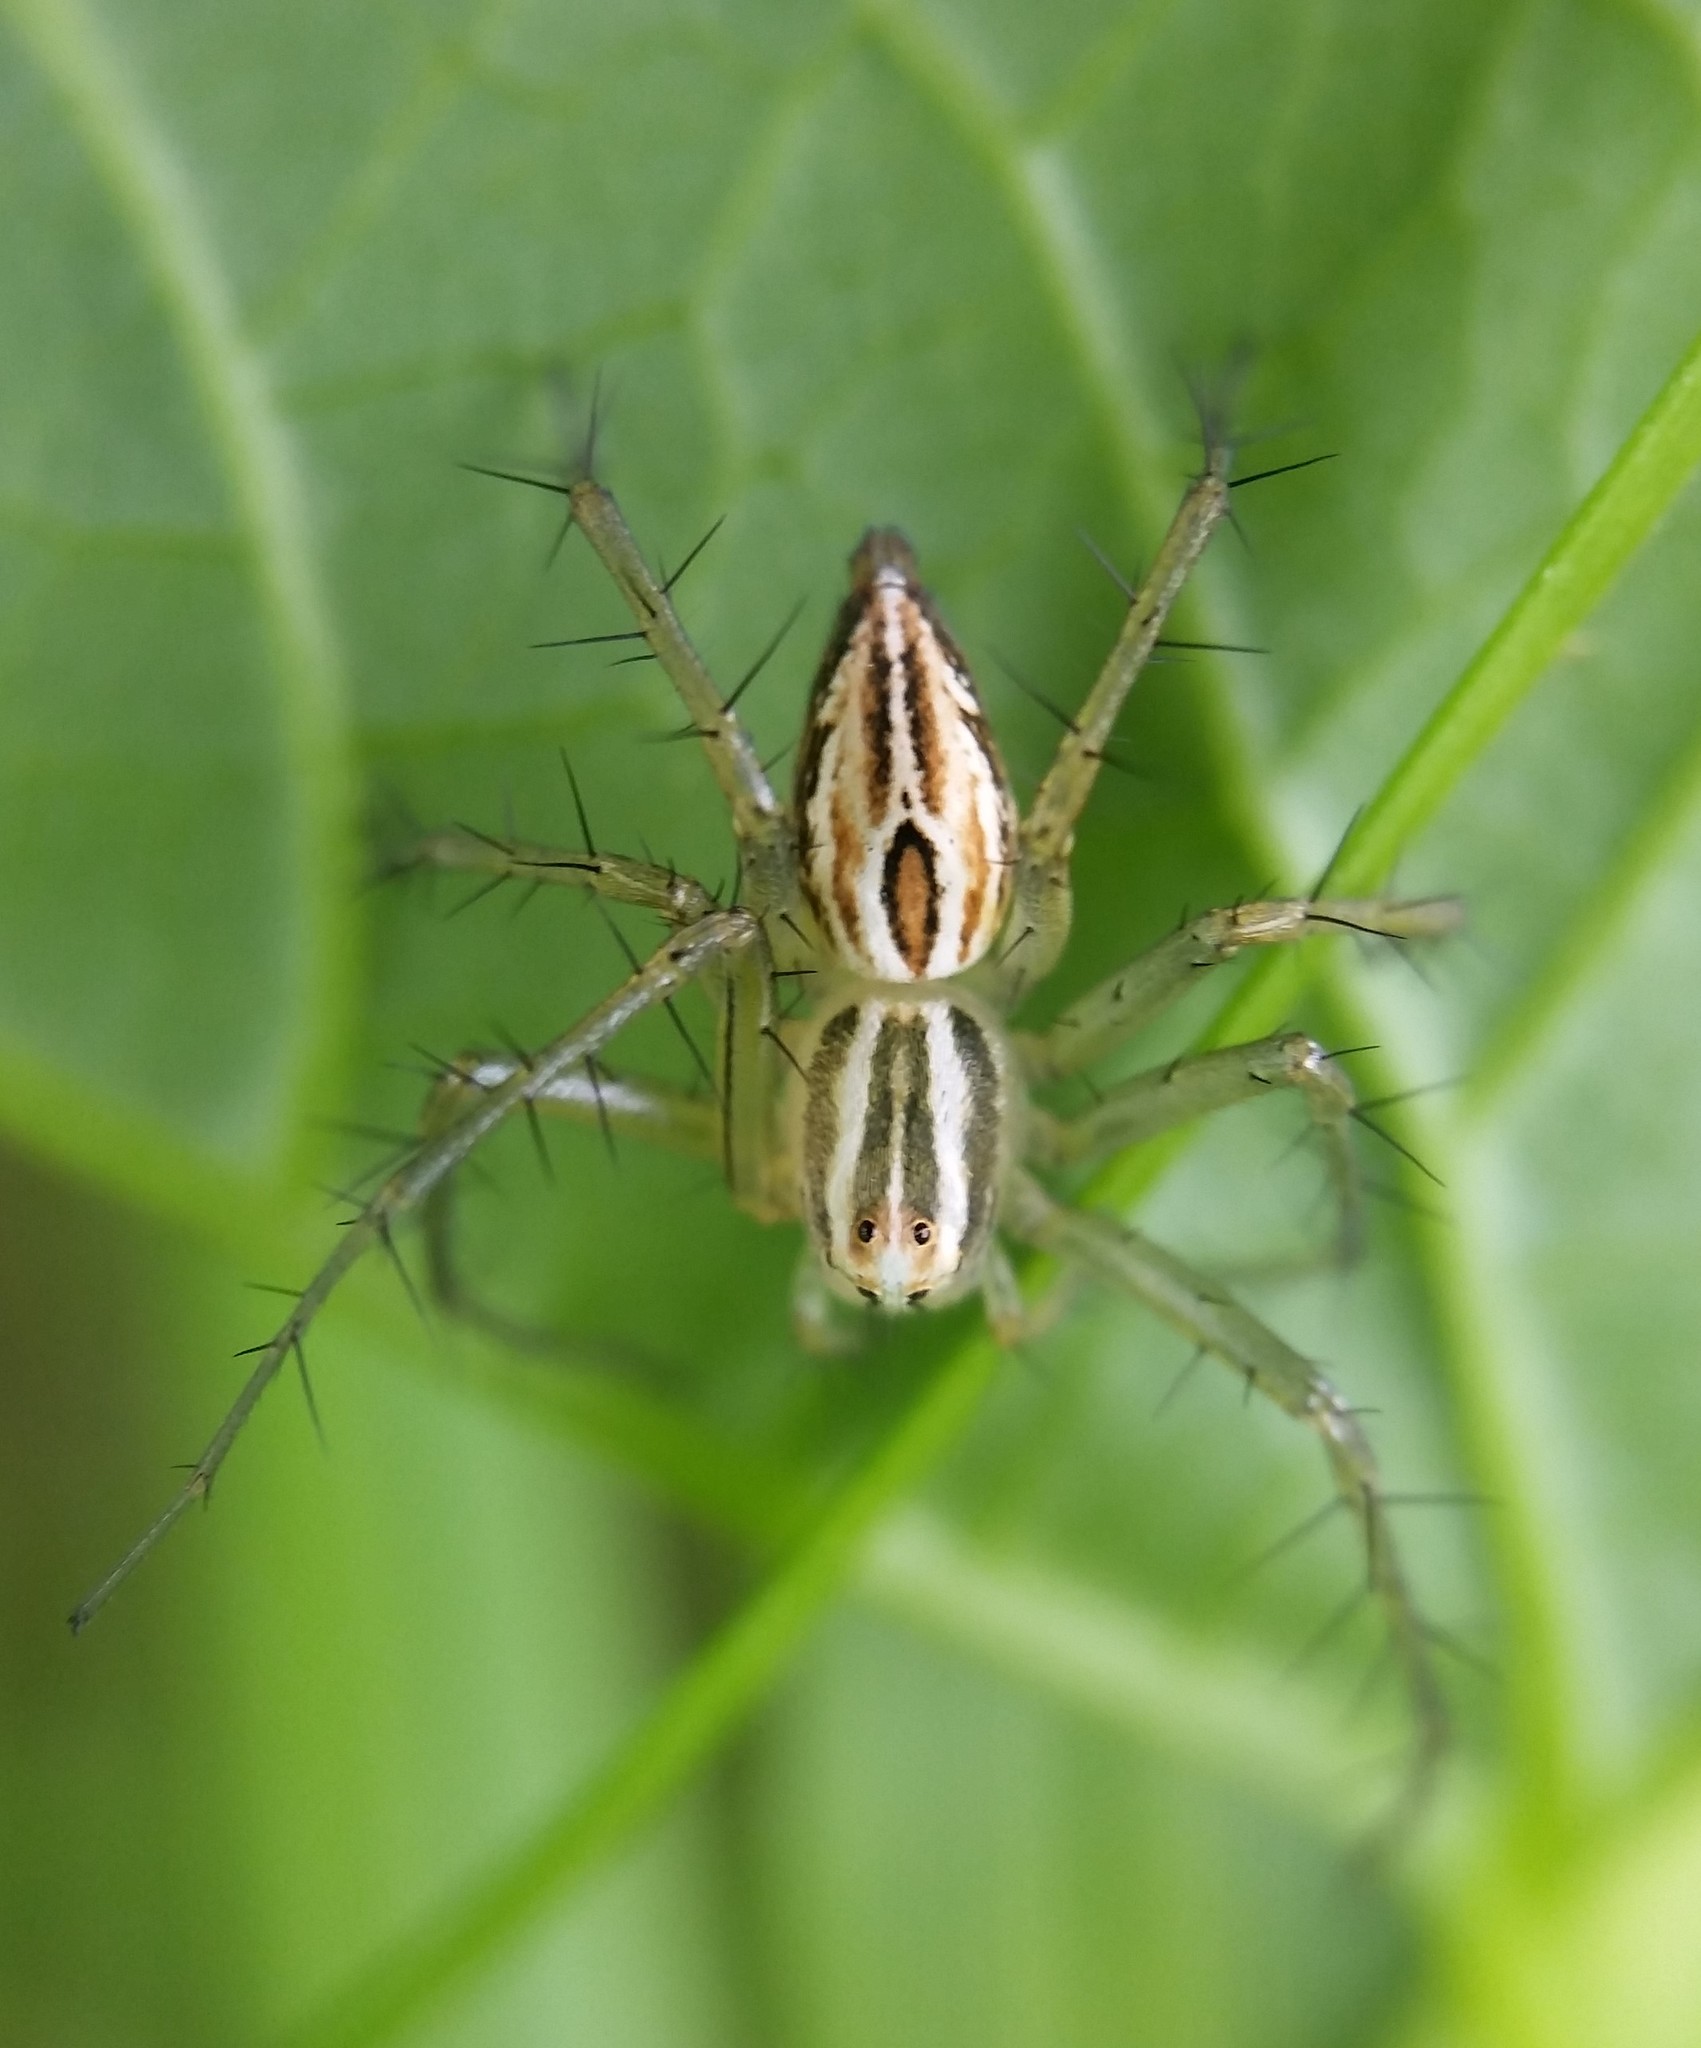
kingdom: Animalia
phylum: Arthropoda
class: Arachnida
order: Araneae
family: Oxyopidae
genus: Oxyopes
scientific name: Oxyopes salticus
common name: Lynx spiders
